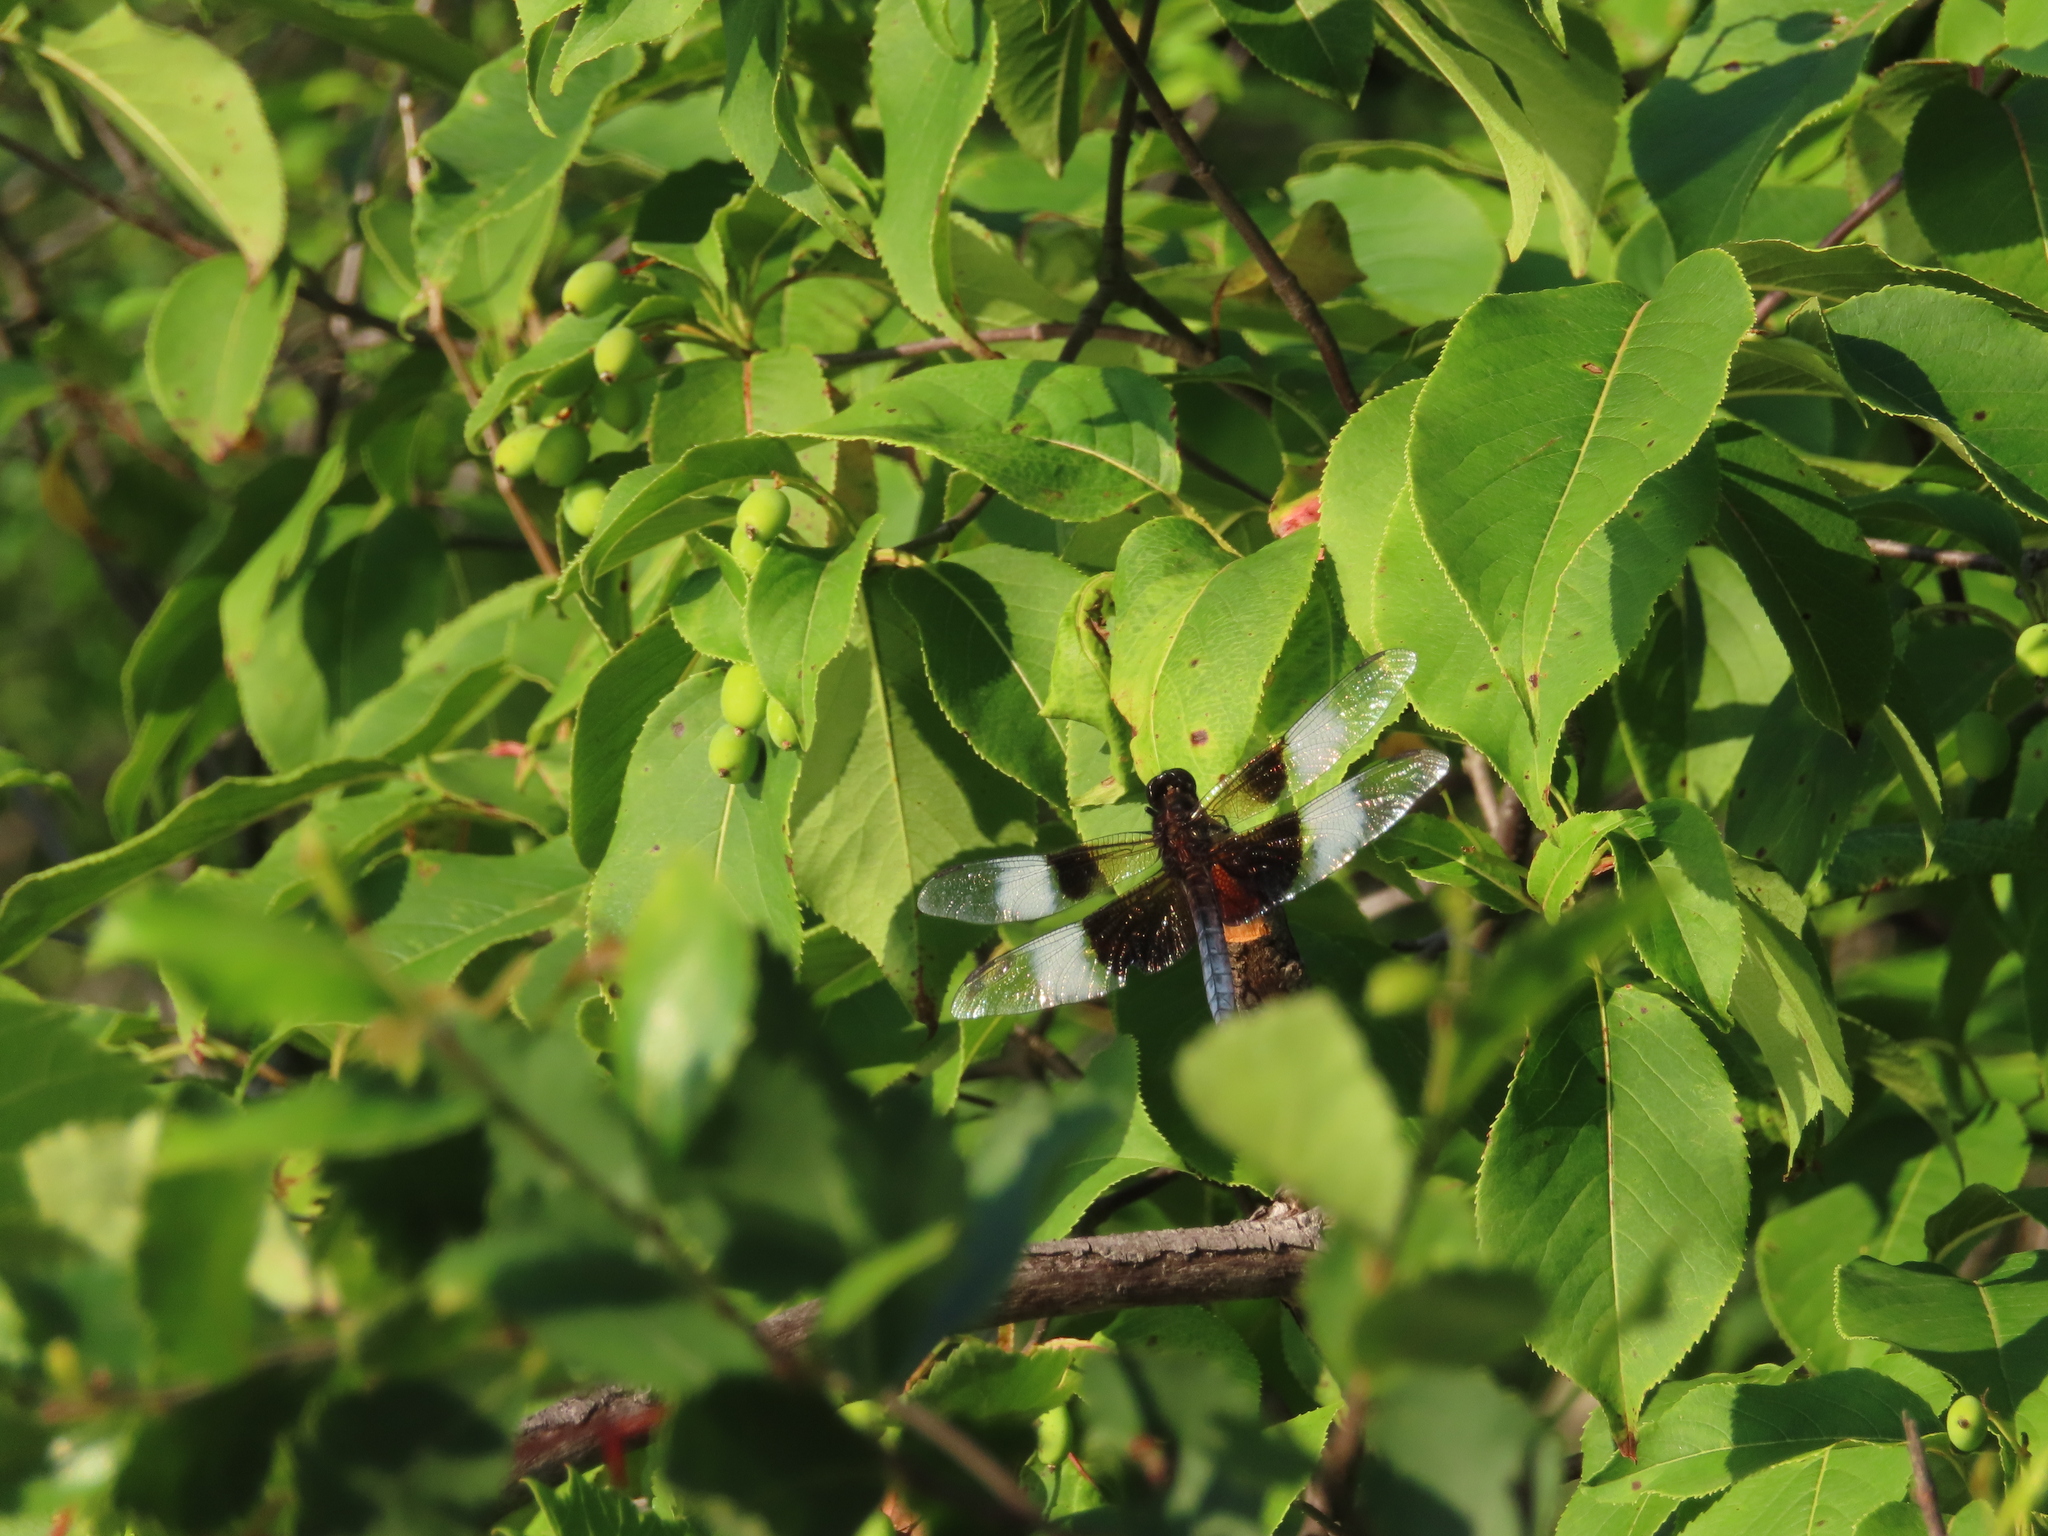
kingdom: Animalia
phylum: Arthropoda
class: Insecta
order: Odonata
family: Libellulidae
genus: Libellula
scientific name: Libellula luctuosa
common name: Widow skimmer
